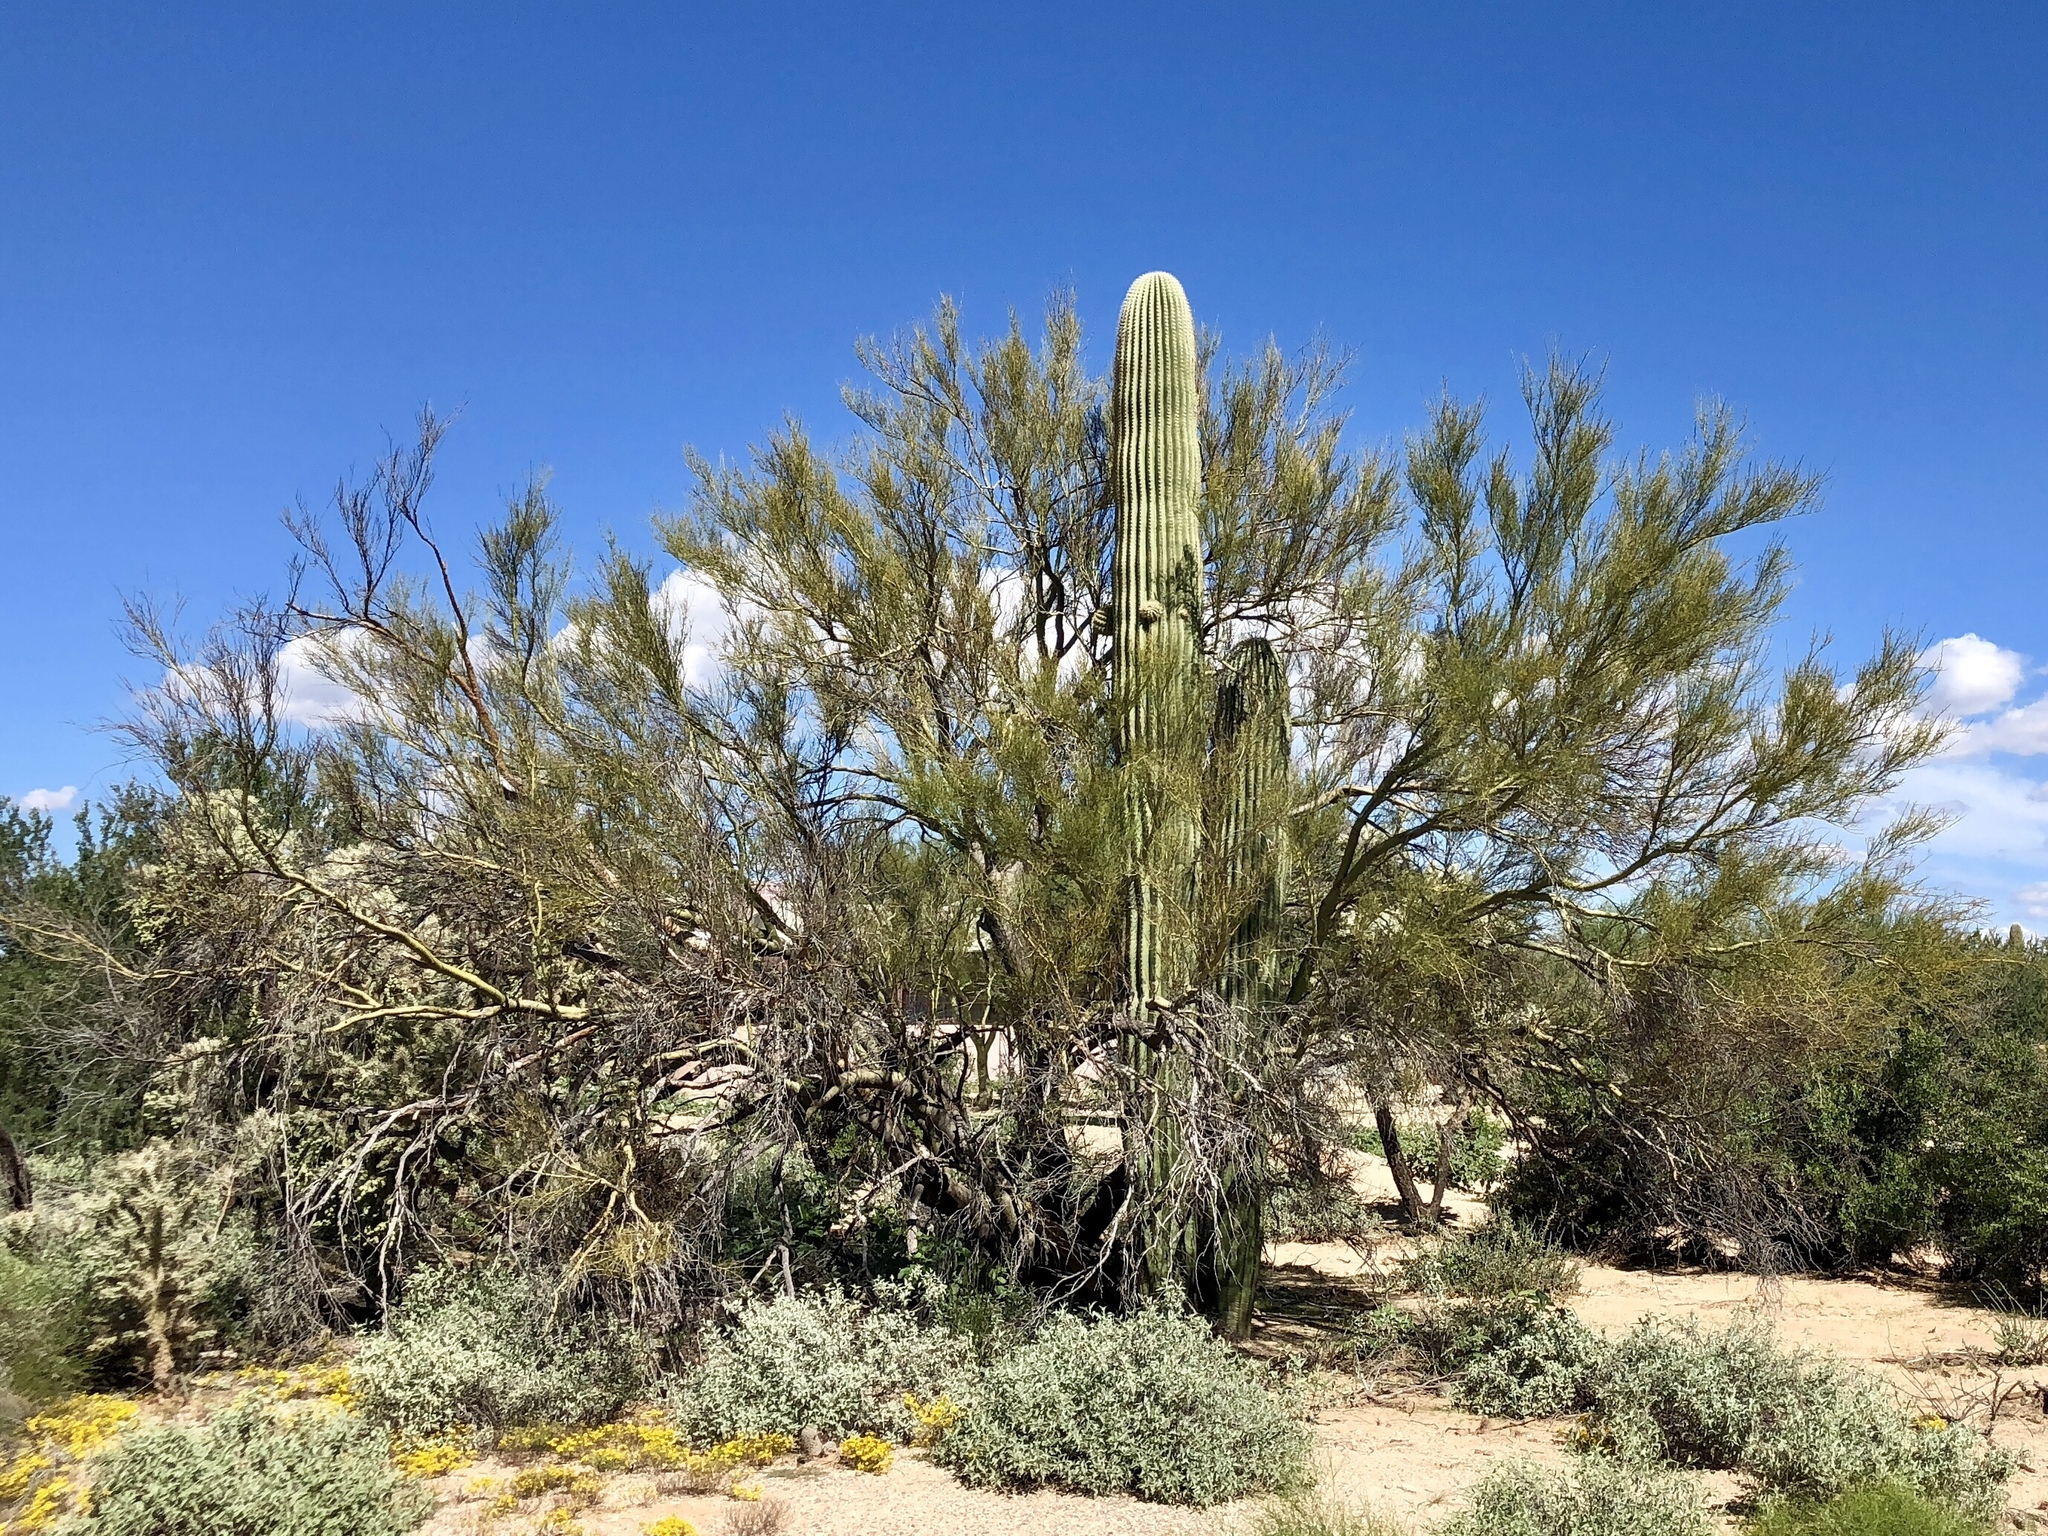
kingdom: Plantae
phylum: Tracheophyta
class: Magnoliopsida
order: Fabales
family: Fabaceae
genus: Parkinsonia
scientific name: Parkinsonia microphylla
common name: Yellow paloverde
